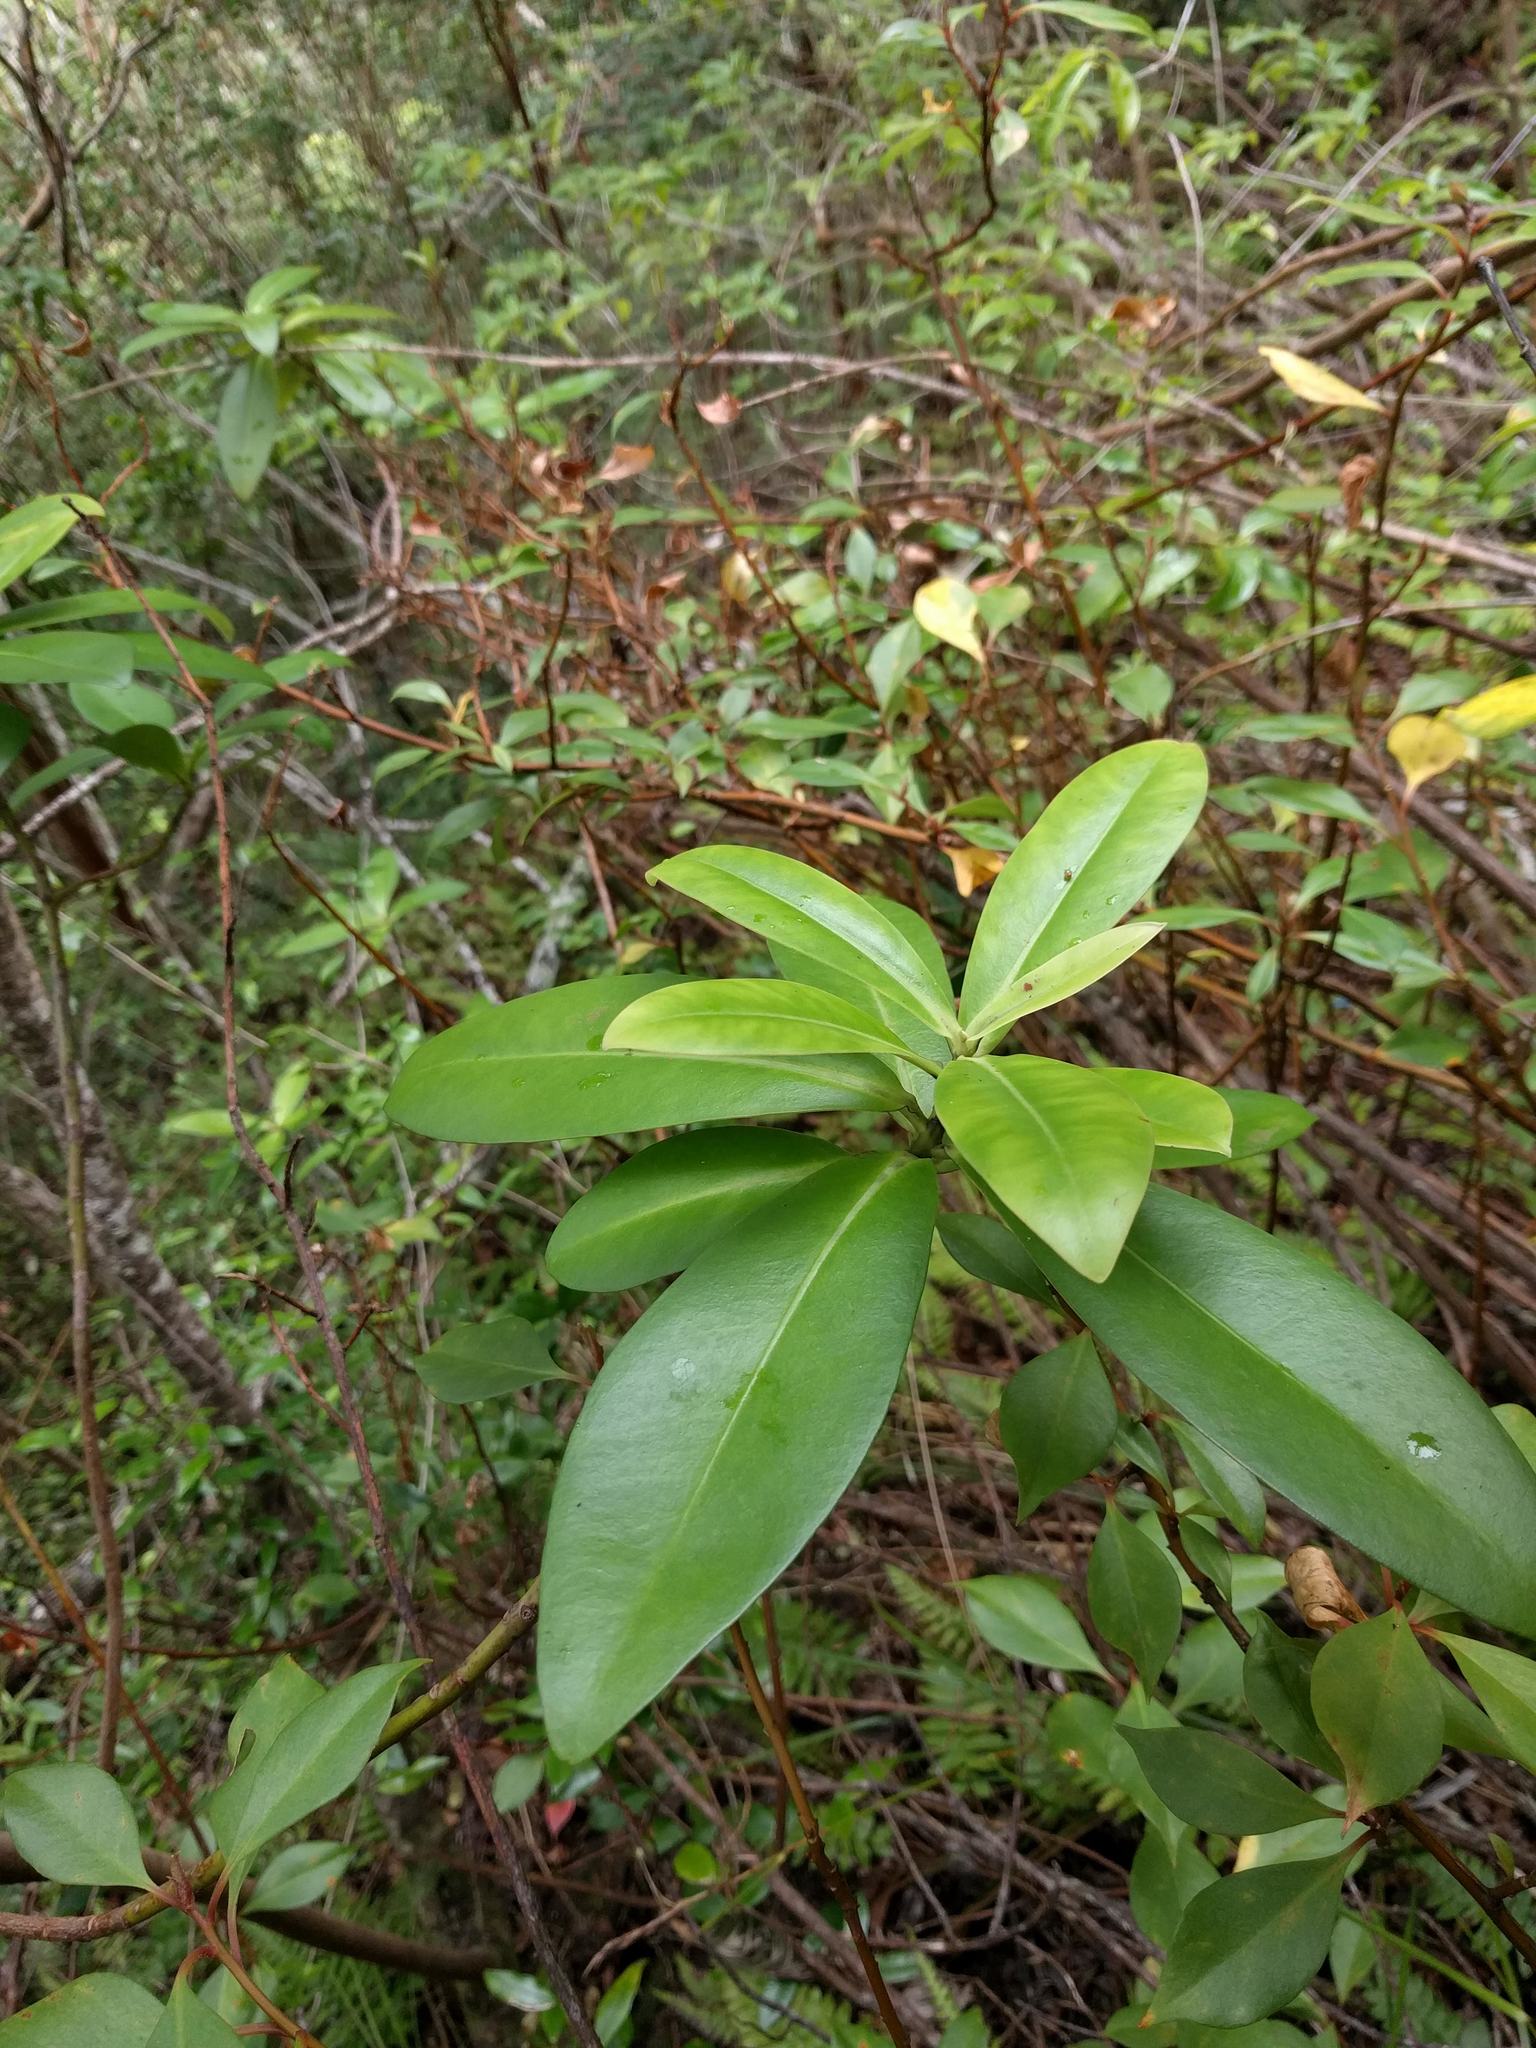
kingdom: Plantae
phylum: Tracheophyta
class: Magnoliopsida
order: Ericales
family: Primulaceae
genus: Myrsine
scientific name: Myrsine lessertiana
